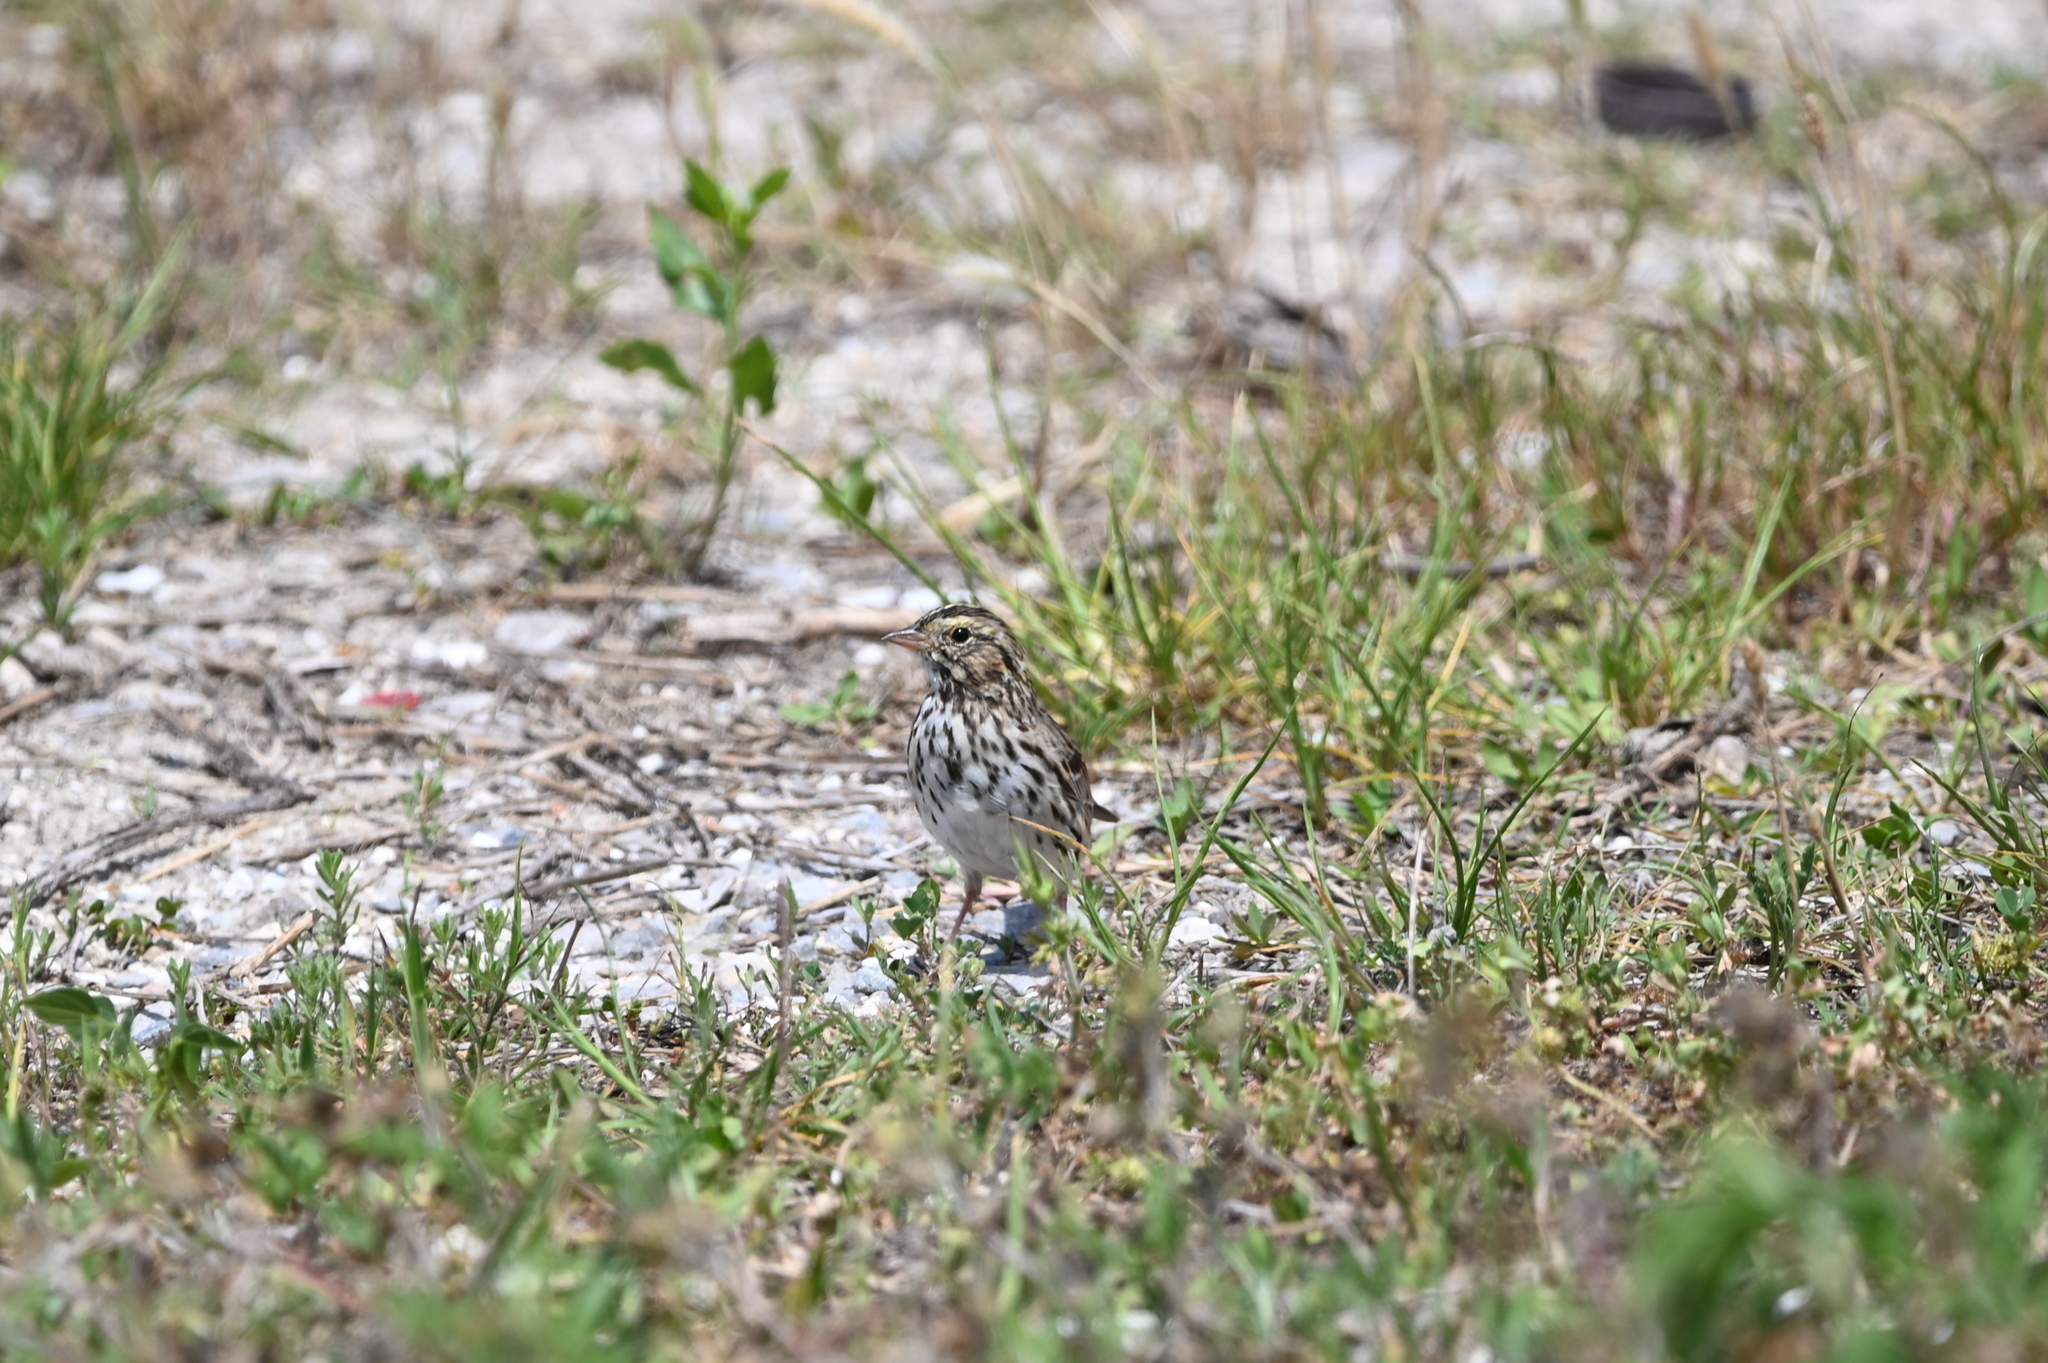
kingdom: Animalia
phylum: Chordata
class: Aves
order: Passeriformes
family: Passerellidae
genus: Passerculus
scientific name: Passerculus sandwichensis
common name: Savannah sparrow
